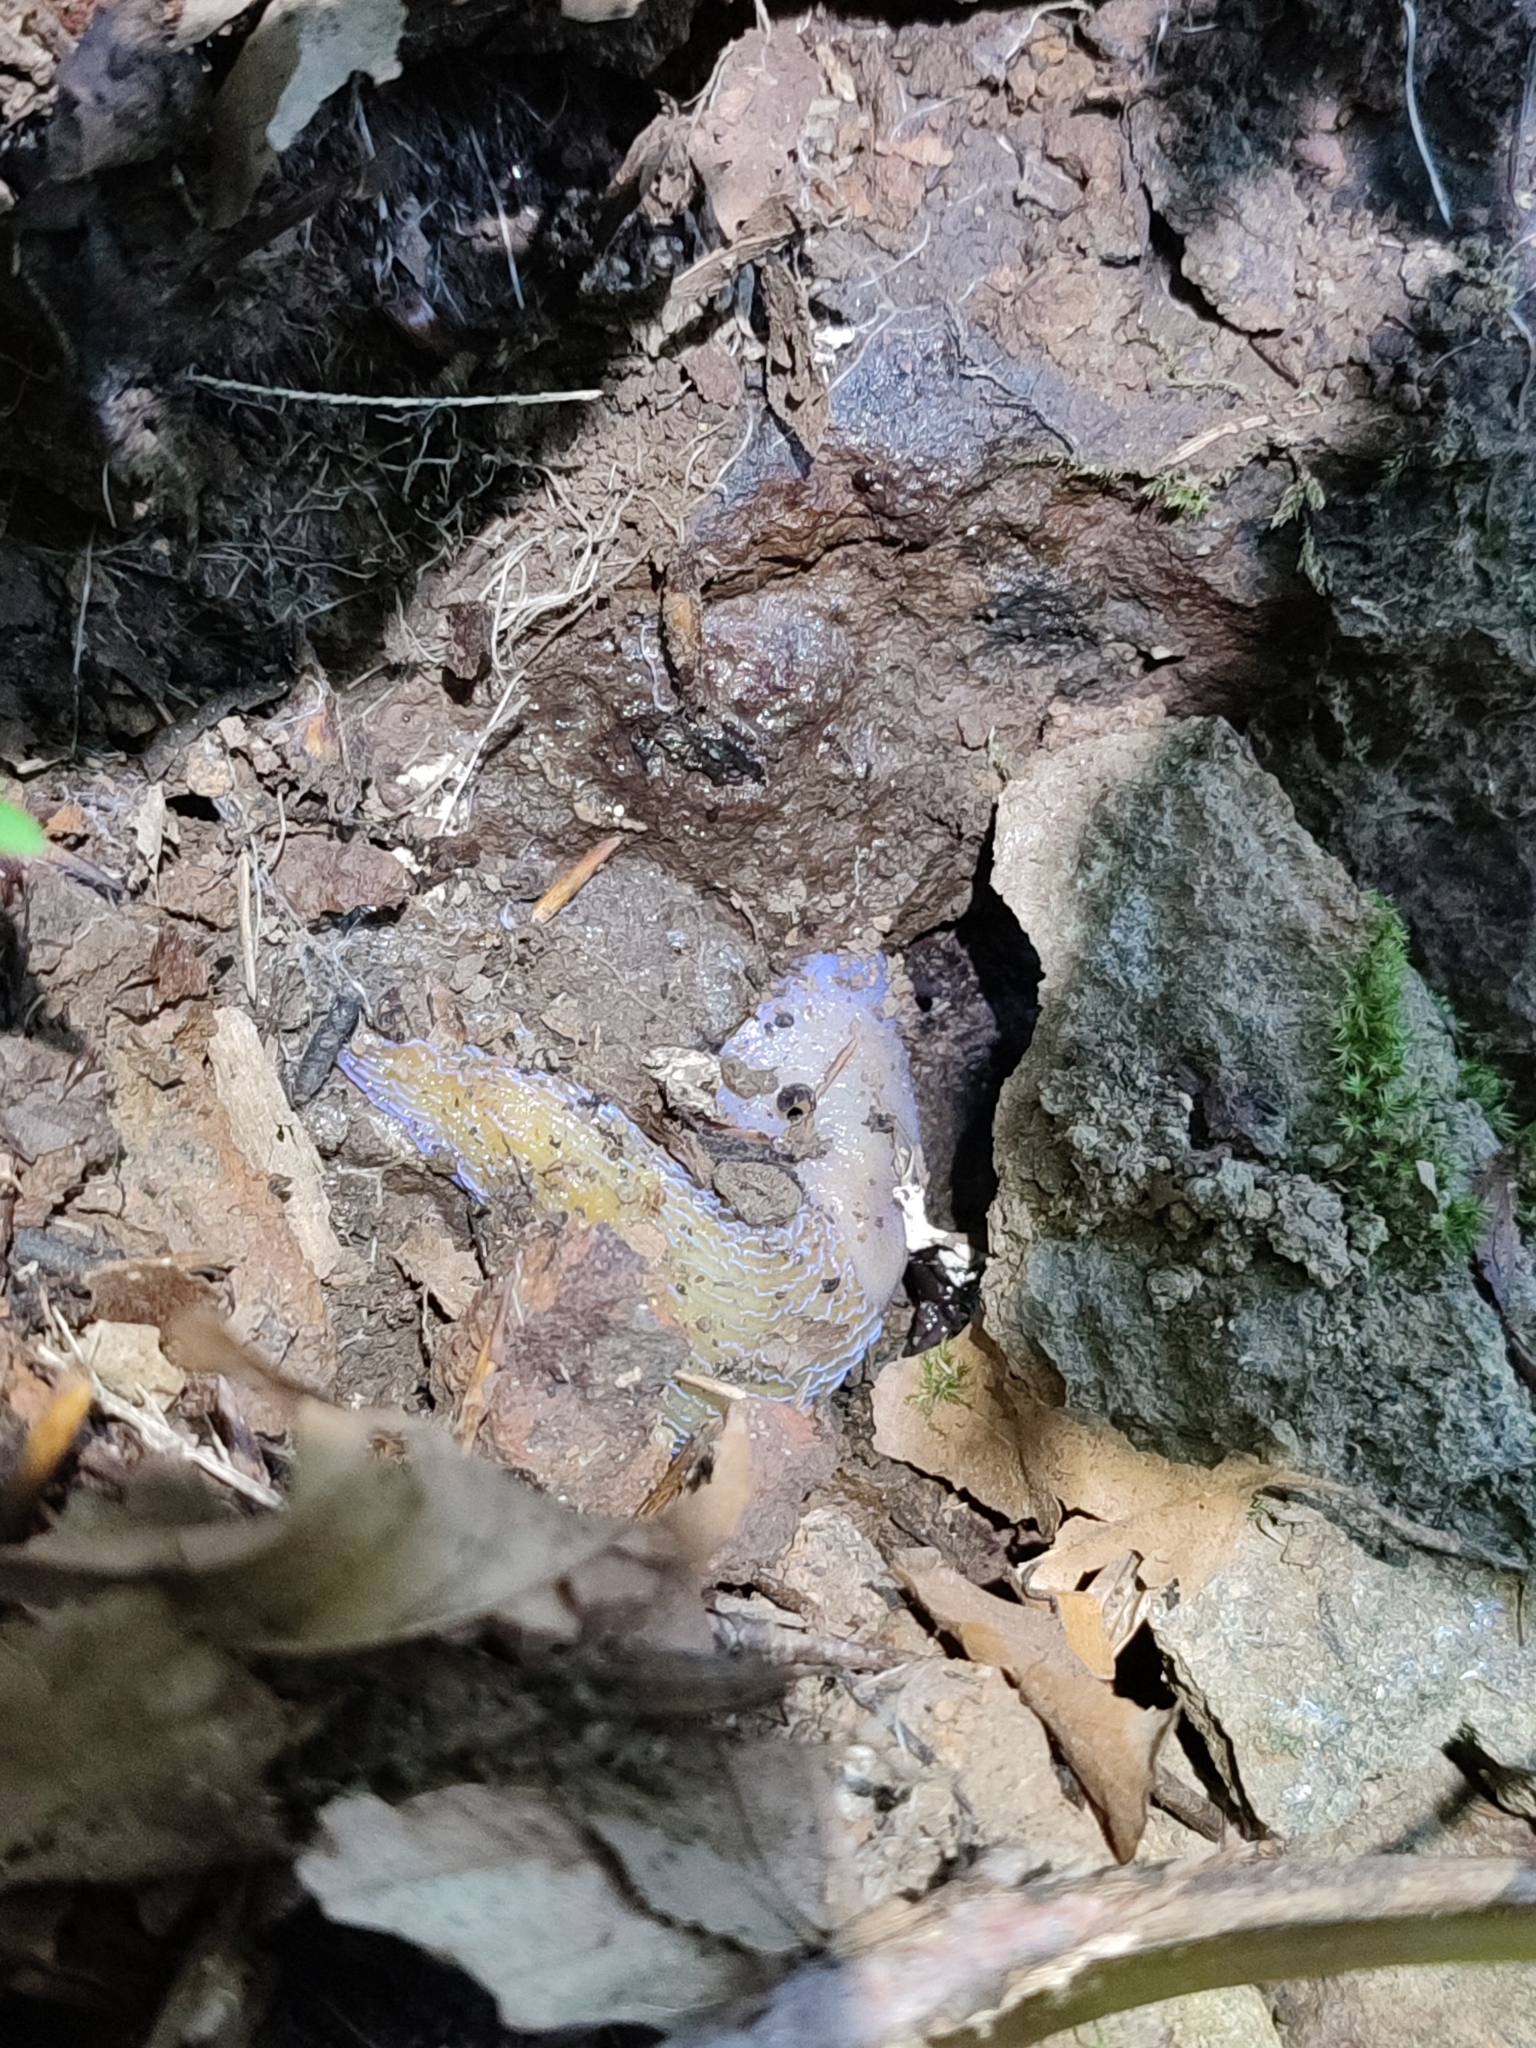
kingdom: Animalia
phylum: Mollusca
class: Gastropoda
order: Stylommatophora
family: Limacidae
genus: Bielzia
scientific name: Bielzia coerulans
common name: Carpathian blue slug
